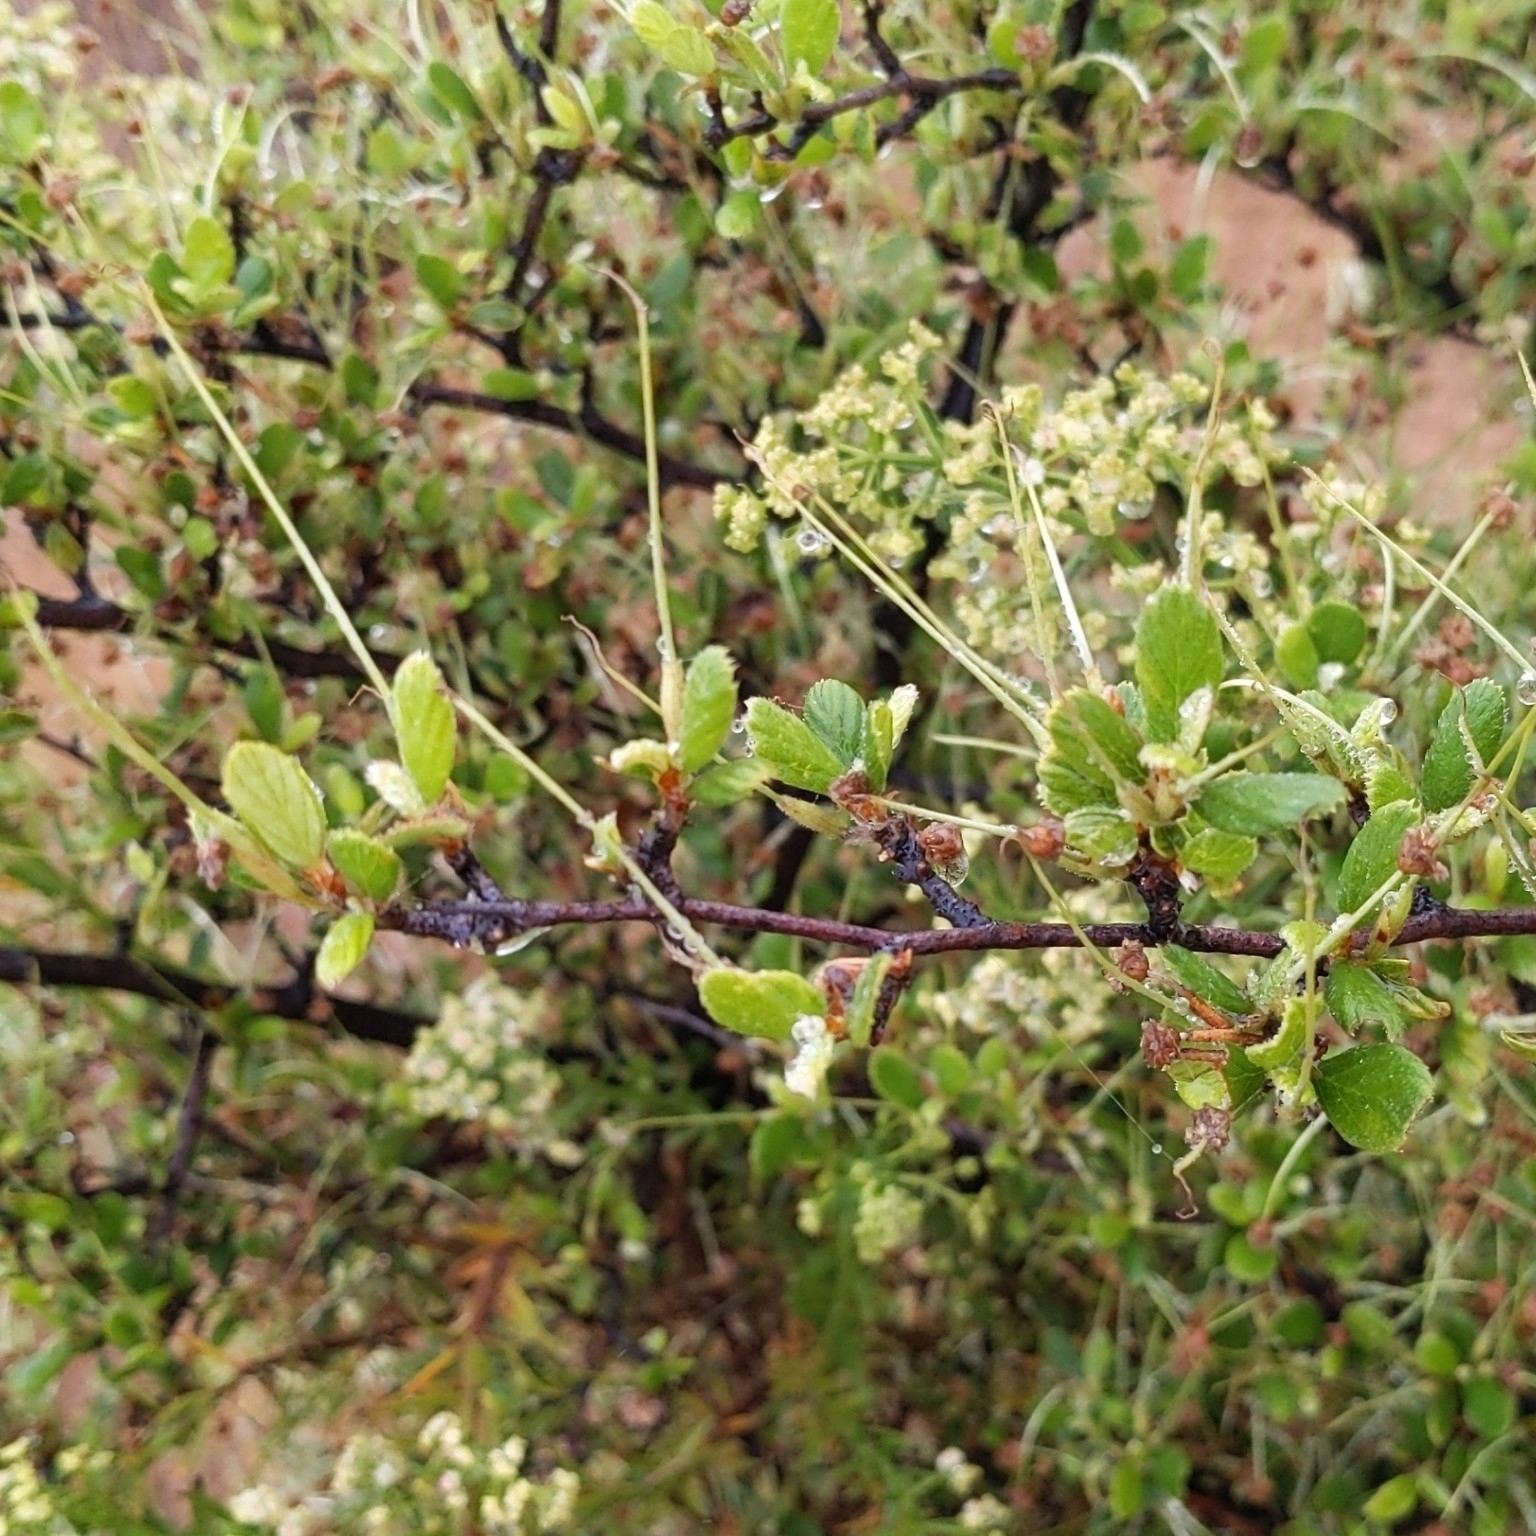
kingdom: Plantae
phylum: Tracheophyta
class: Magnoliopsida
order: Rosales
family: Rosaceae
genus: Cercocarpus
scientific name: Cercocarpus betuloides
